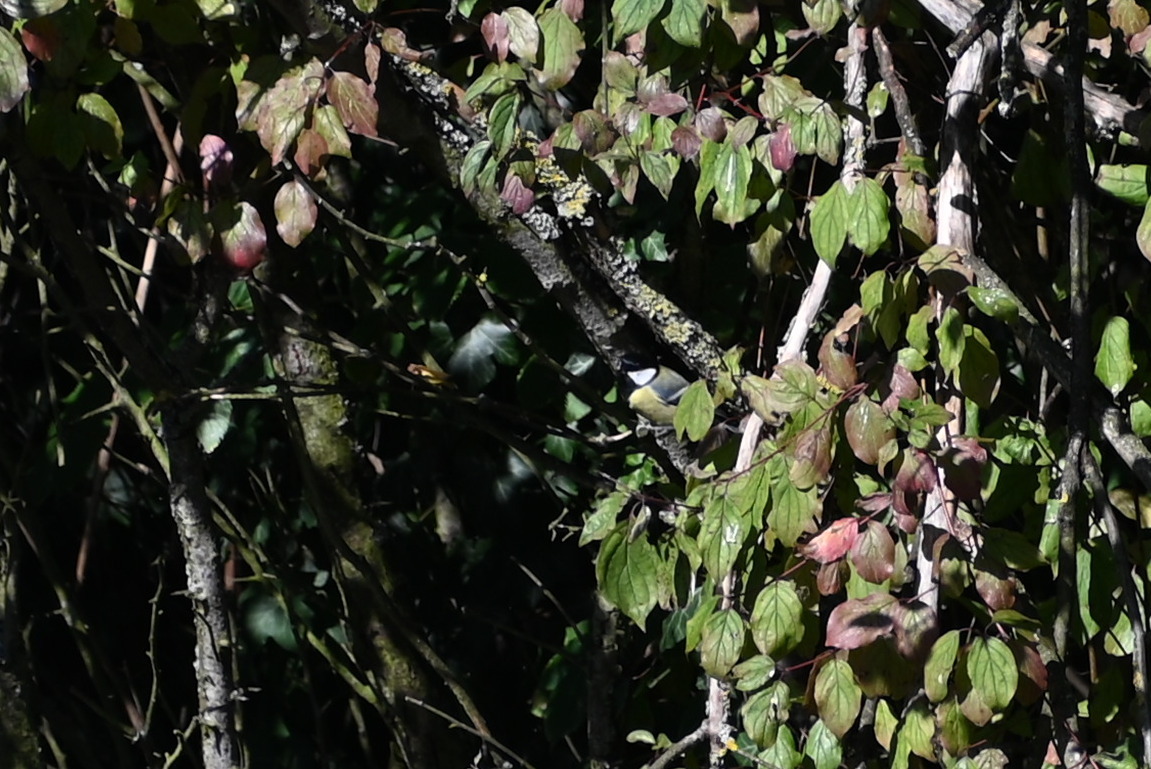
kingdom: Animalia
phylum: Chordata
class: Aves
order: Passeriformes
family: Paridae
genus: Parus
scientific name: Parus major
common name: Great tit
